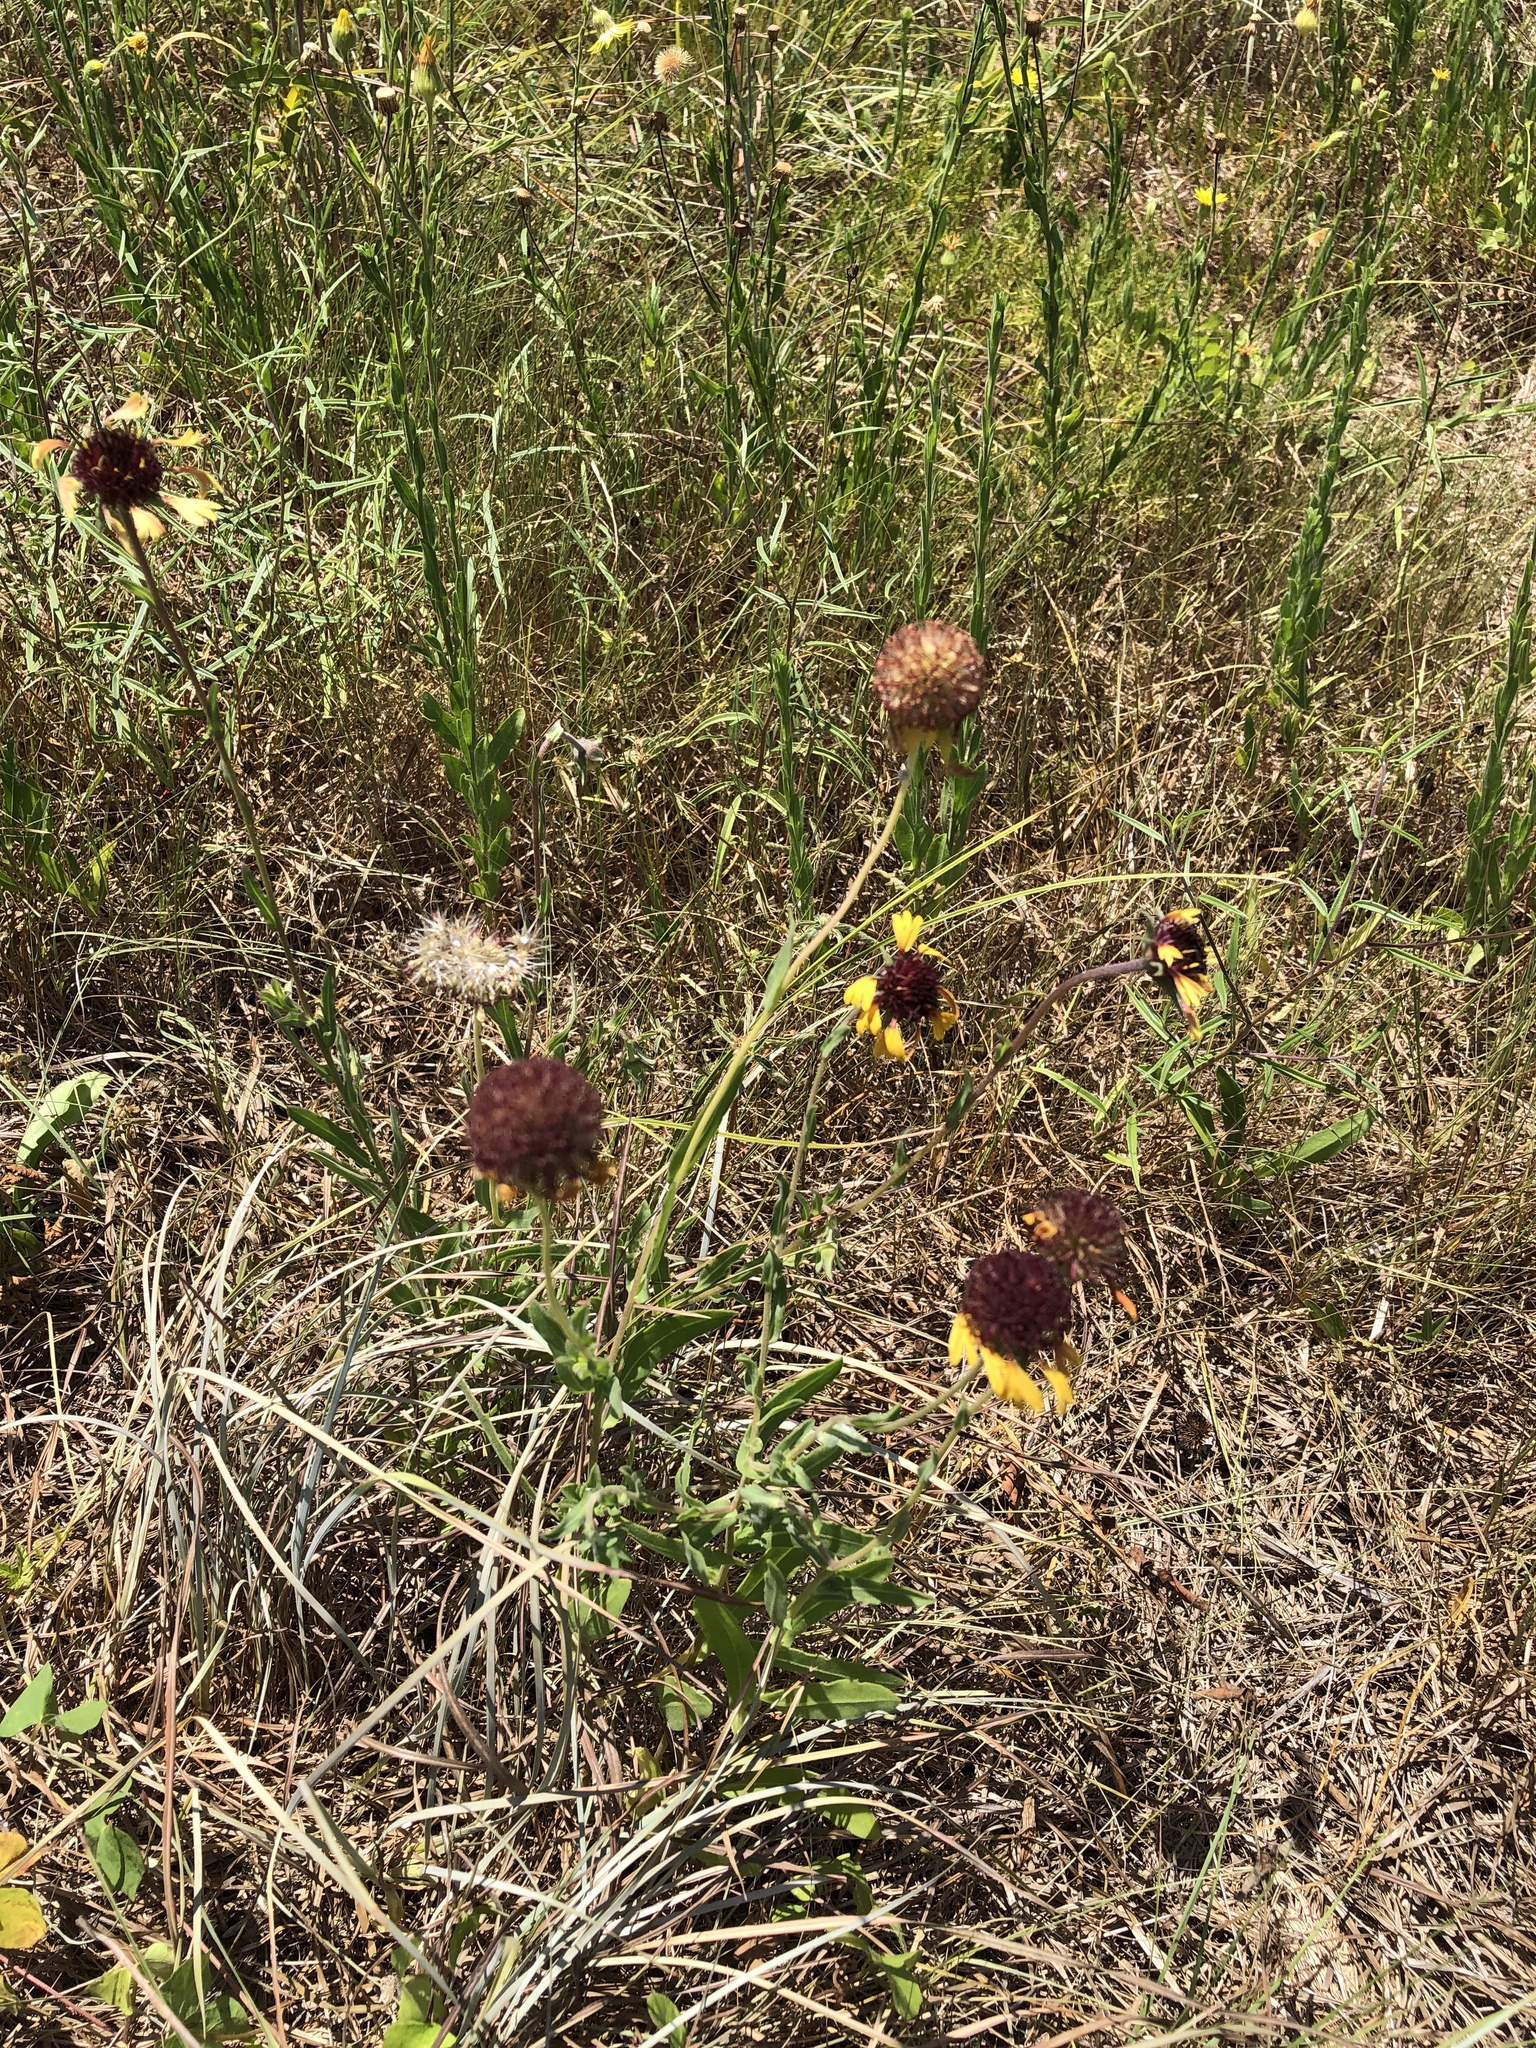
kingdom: Plantae
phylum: Tracheophyta
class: Magnoliopsida
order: Asterales
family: Asteraceae
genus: Gaillardia
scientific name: Gaillardia aestivalis
